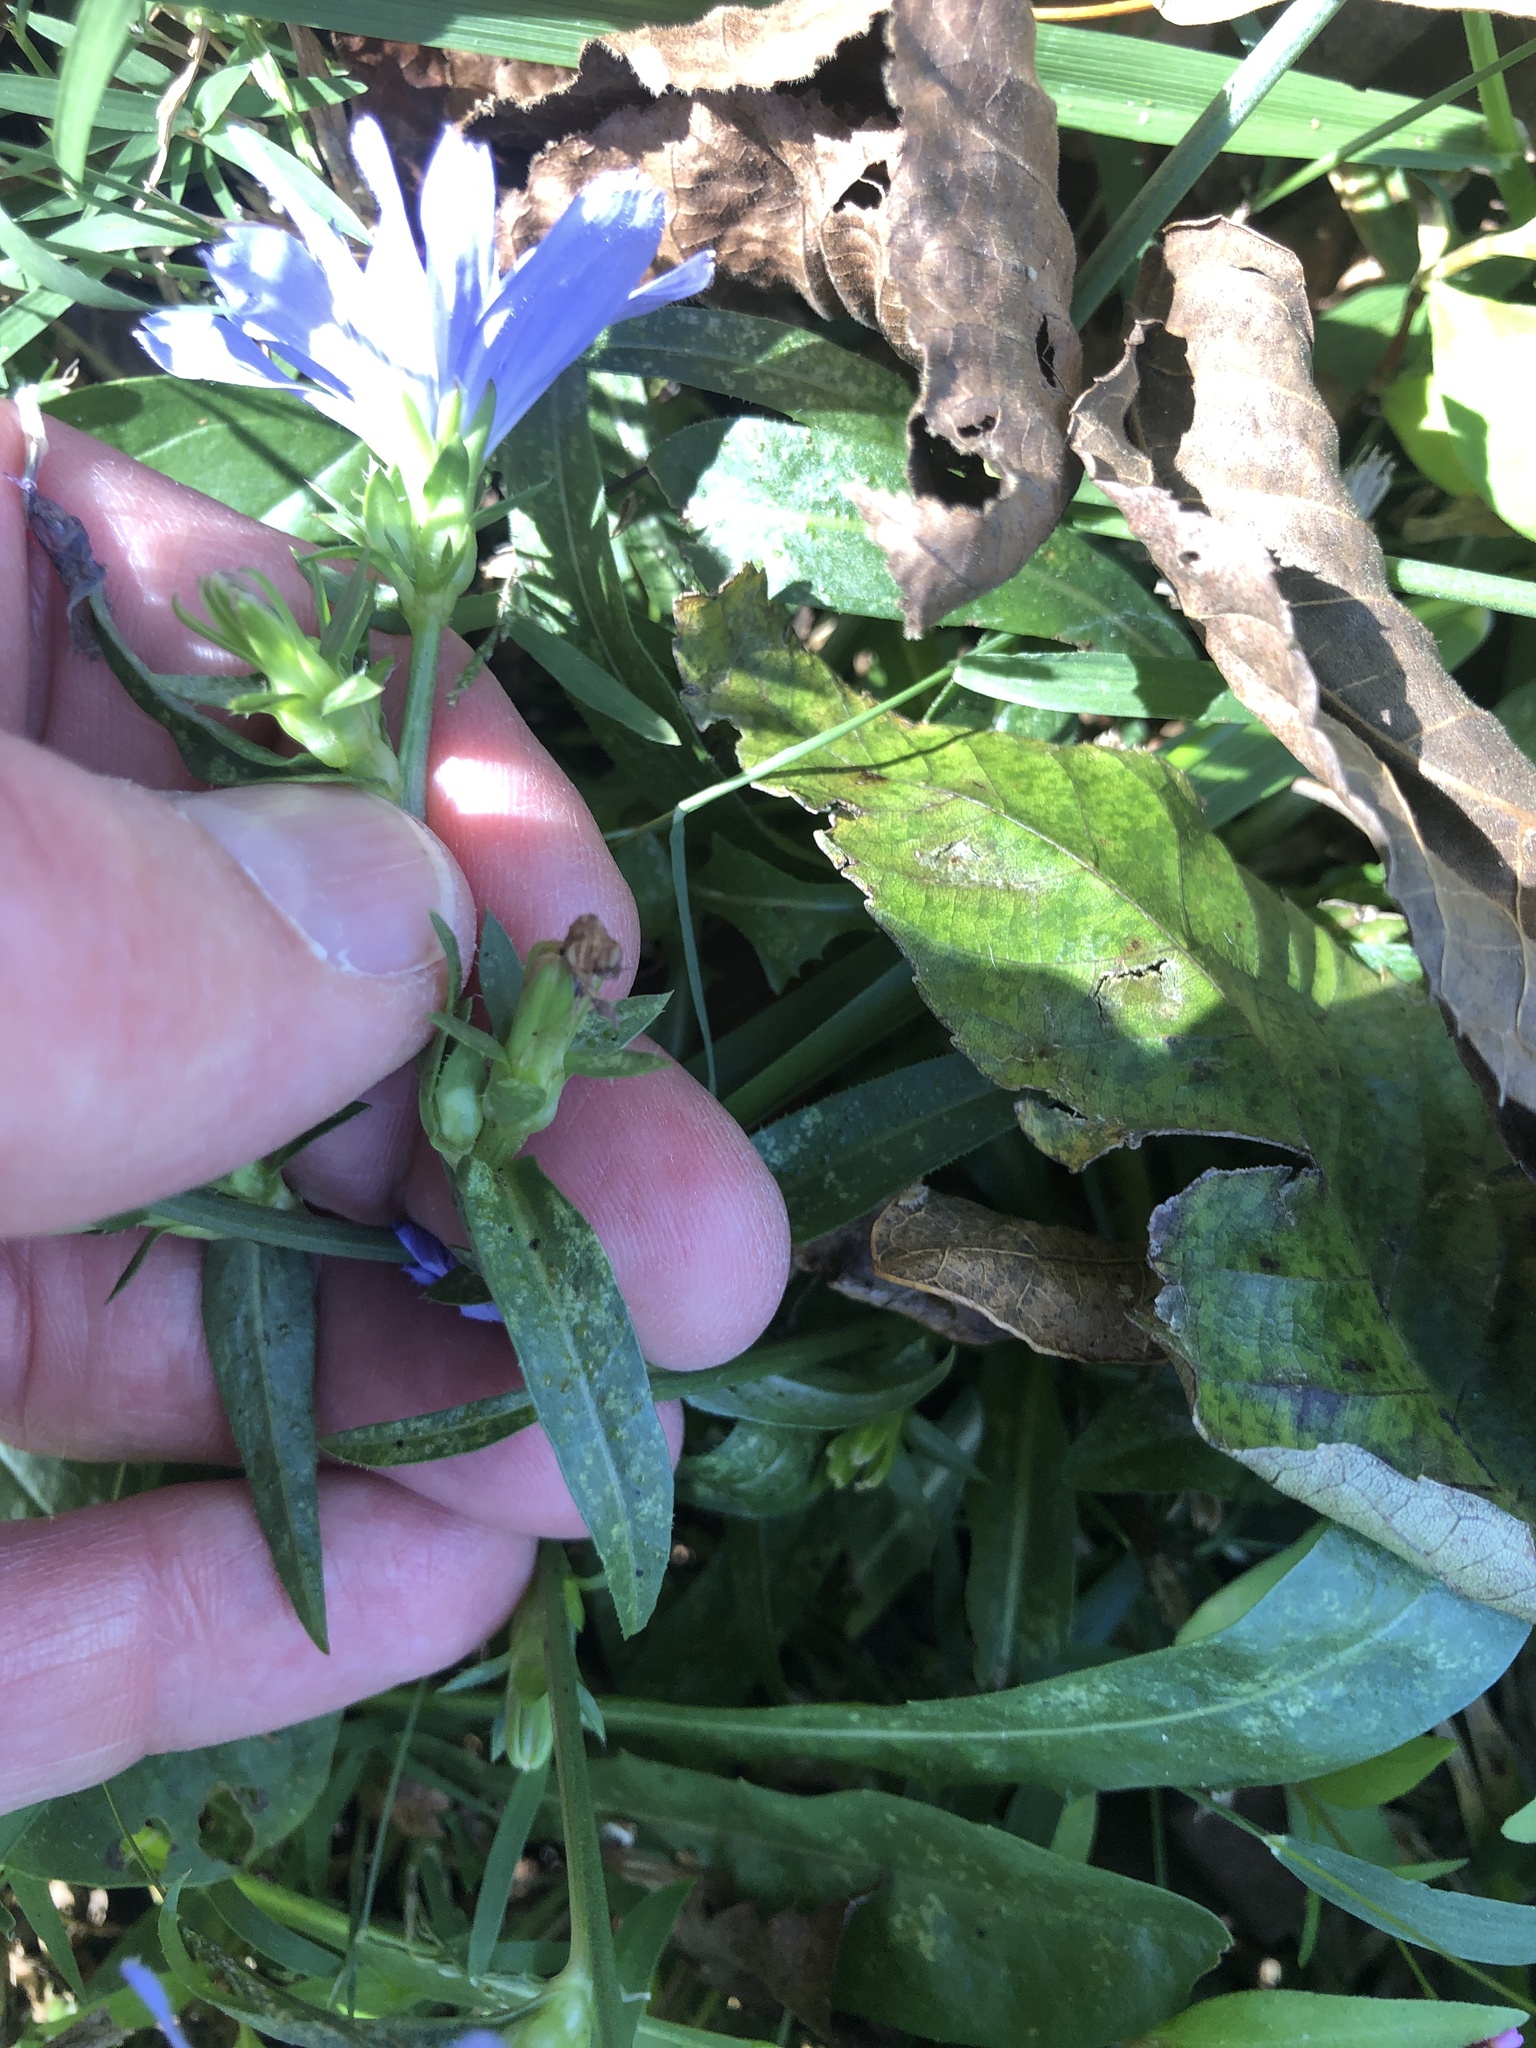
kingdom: Plantae
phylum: Tracheophyta
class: Magnoliopsida
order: Asterales
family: Asteraceae
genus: Cichorium
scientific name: Cichorium intybus
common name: Chicory
